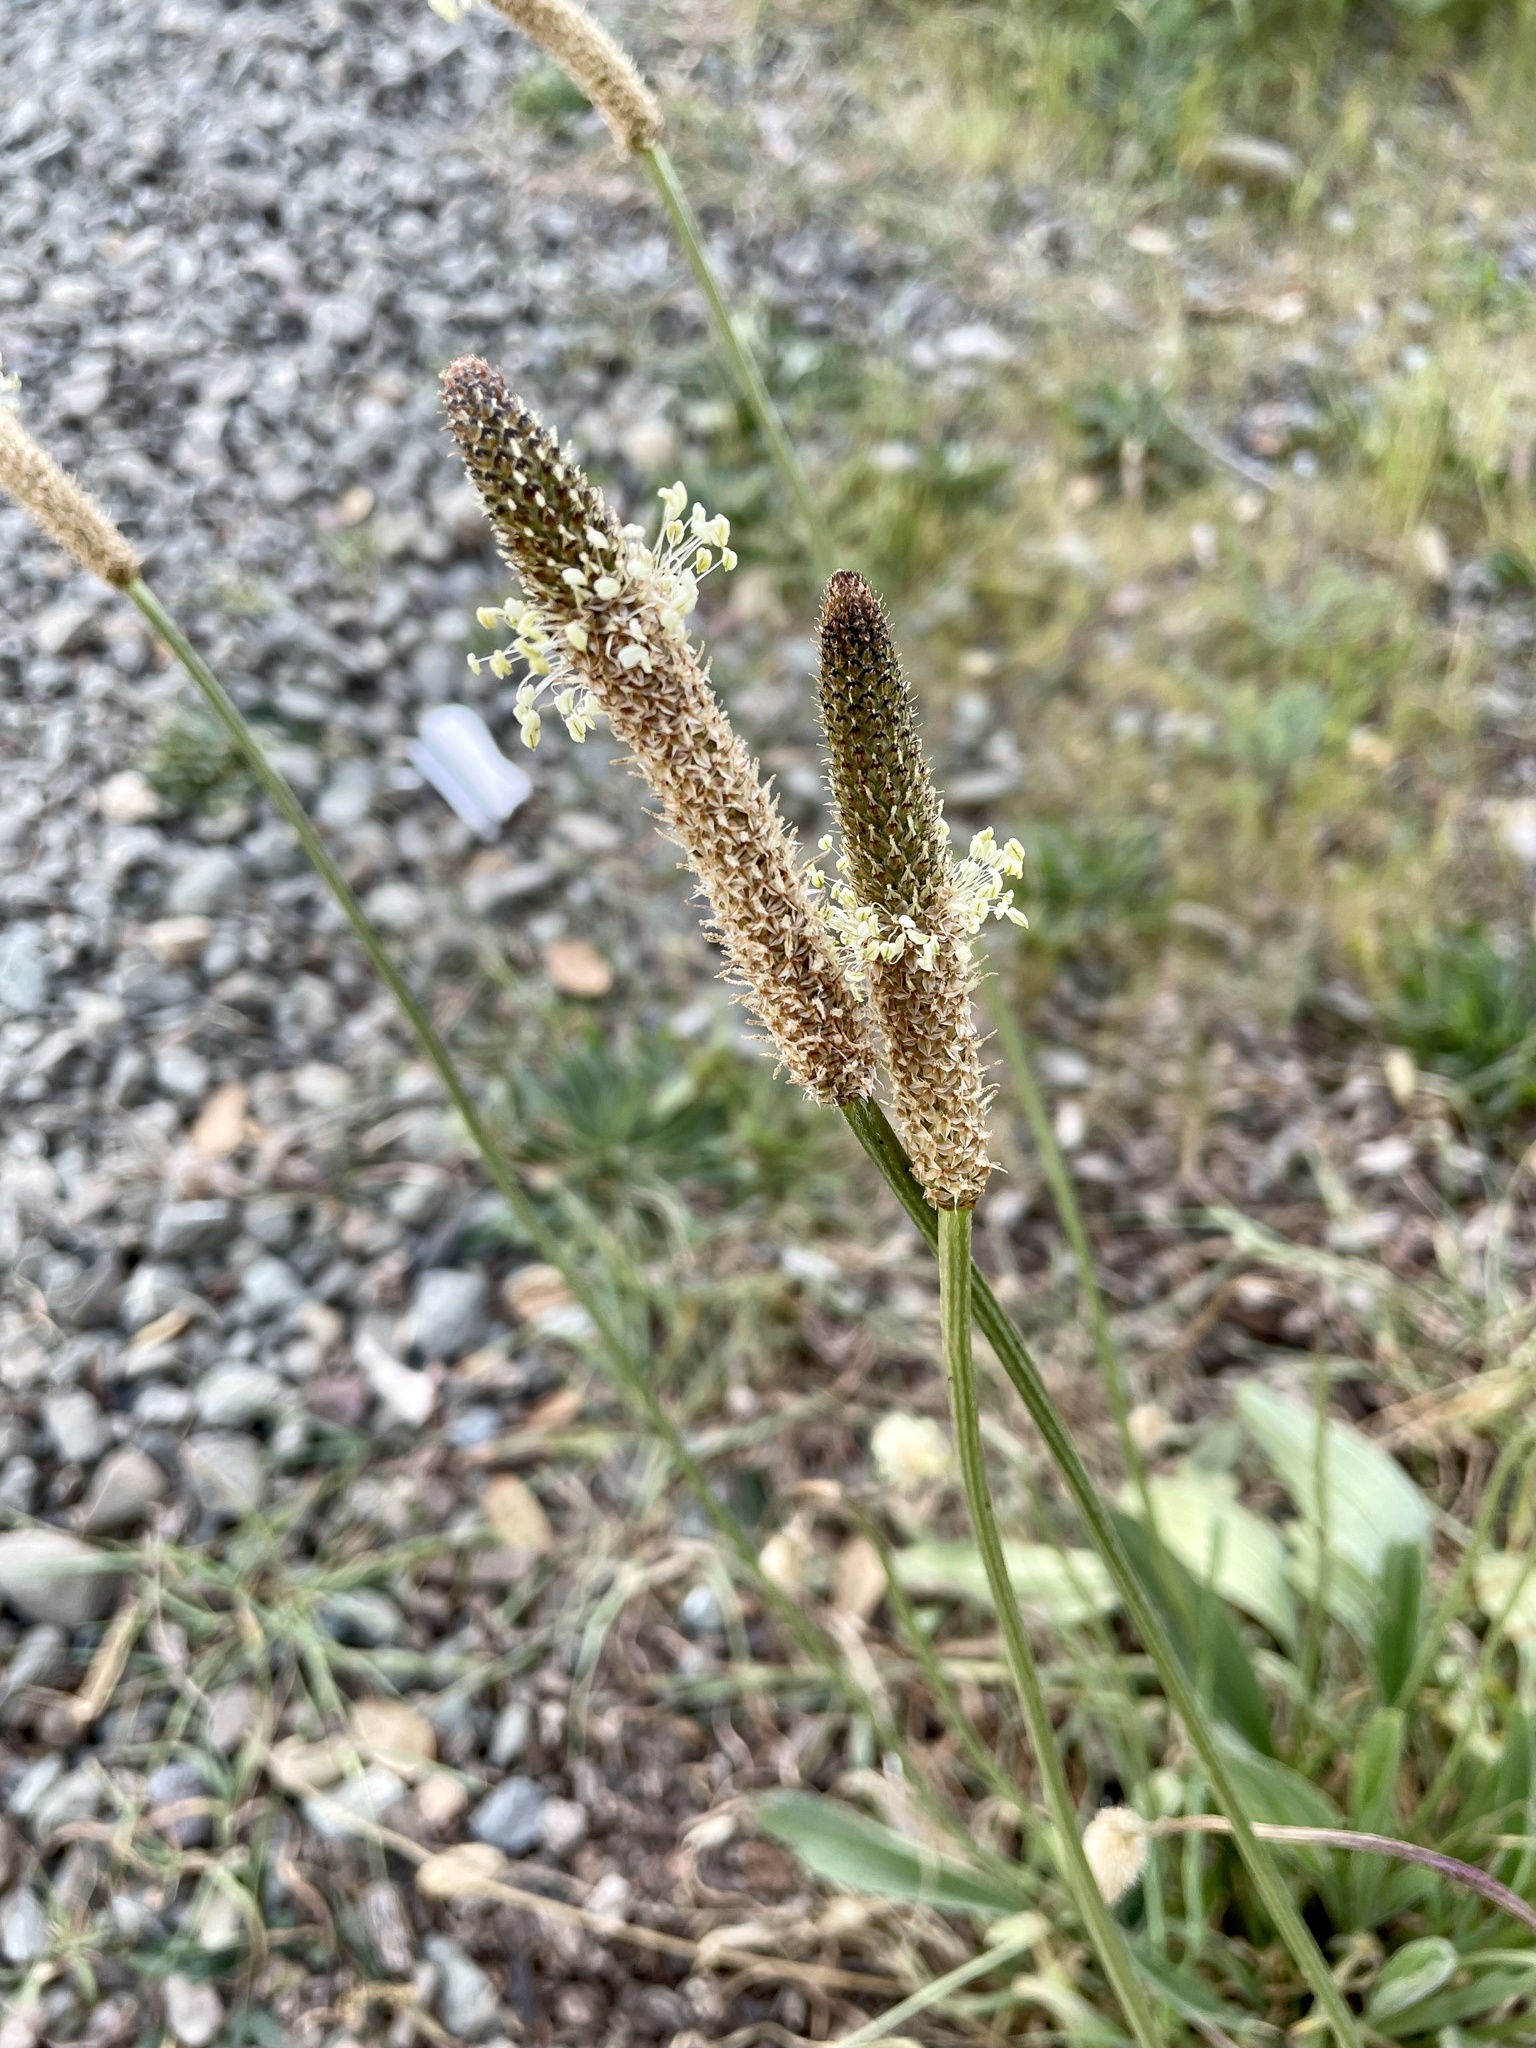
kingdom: Plantae
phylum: Tracheophyta
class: Magnoliopsida
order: Lamiales
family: Plantaginaceae
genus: Plantago
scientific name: Plantago lanceolata
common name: Ribwort plantain
